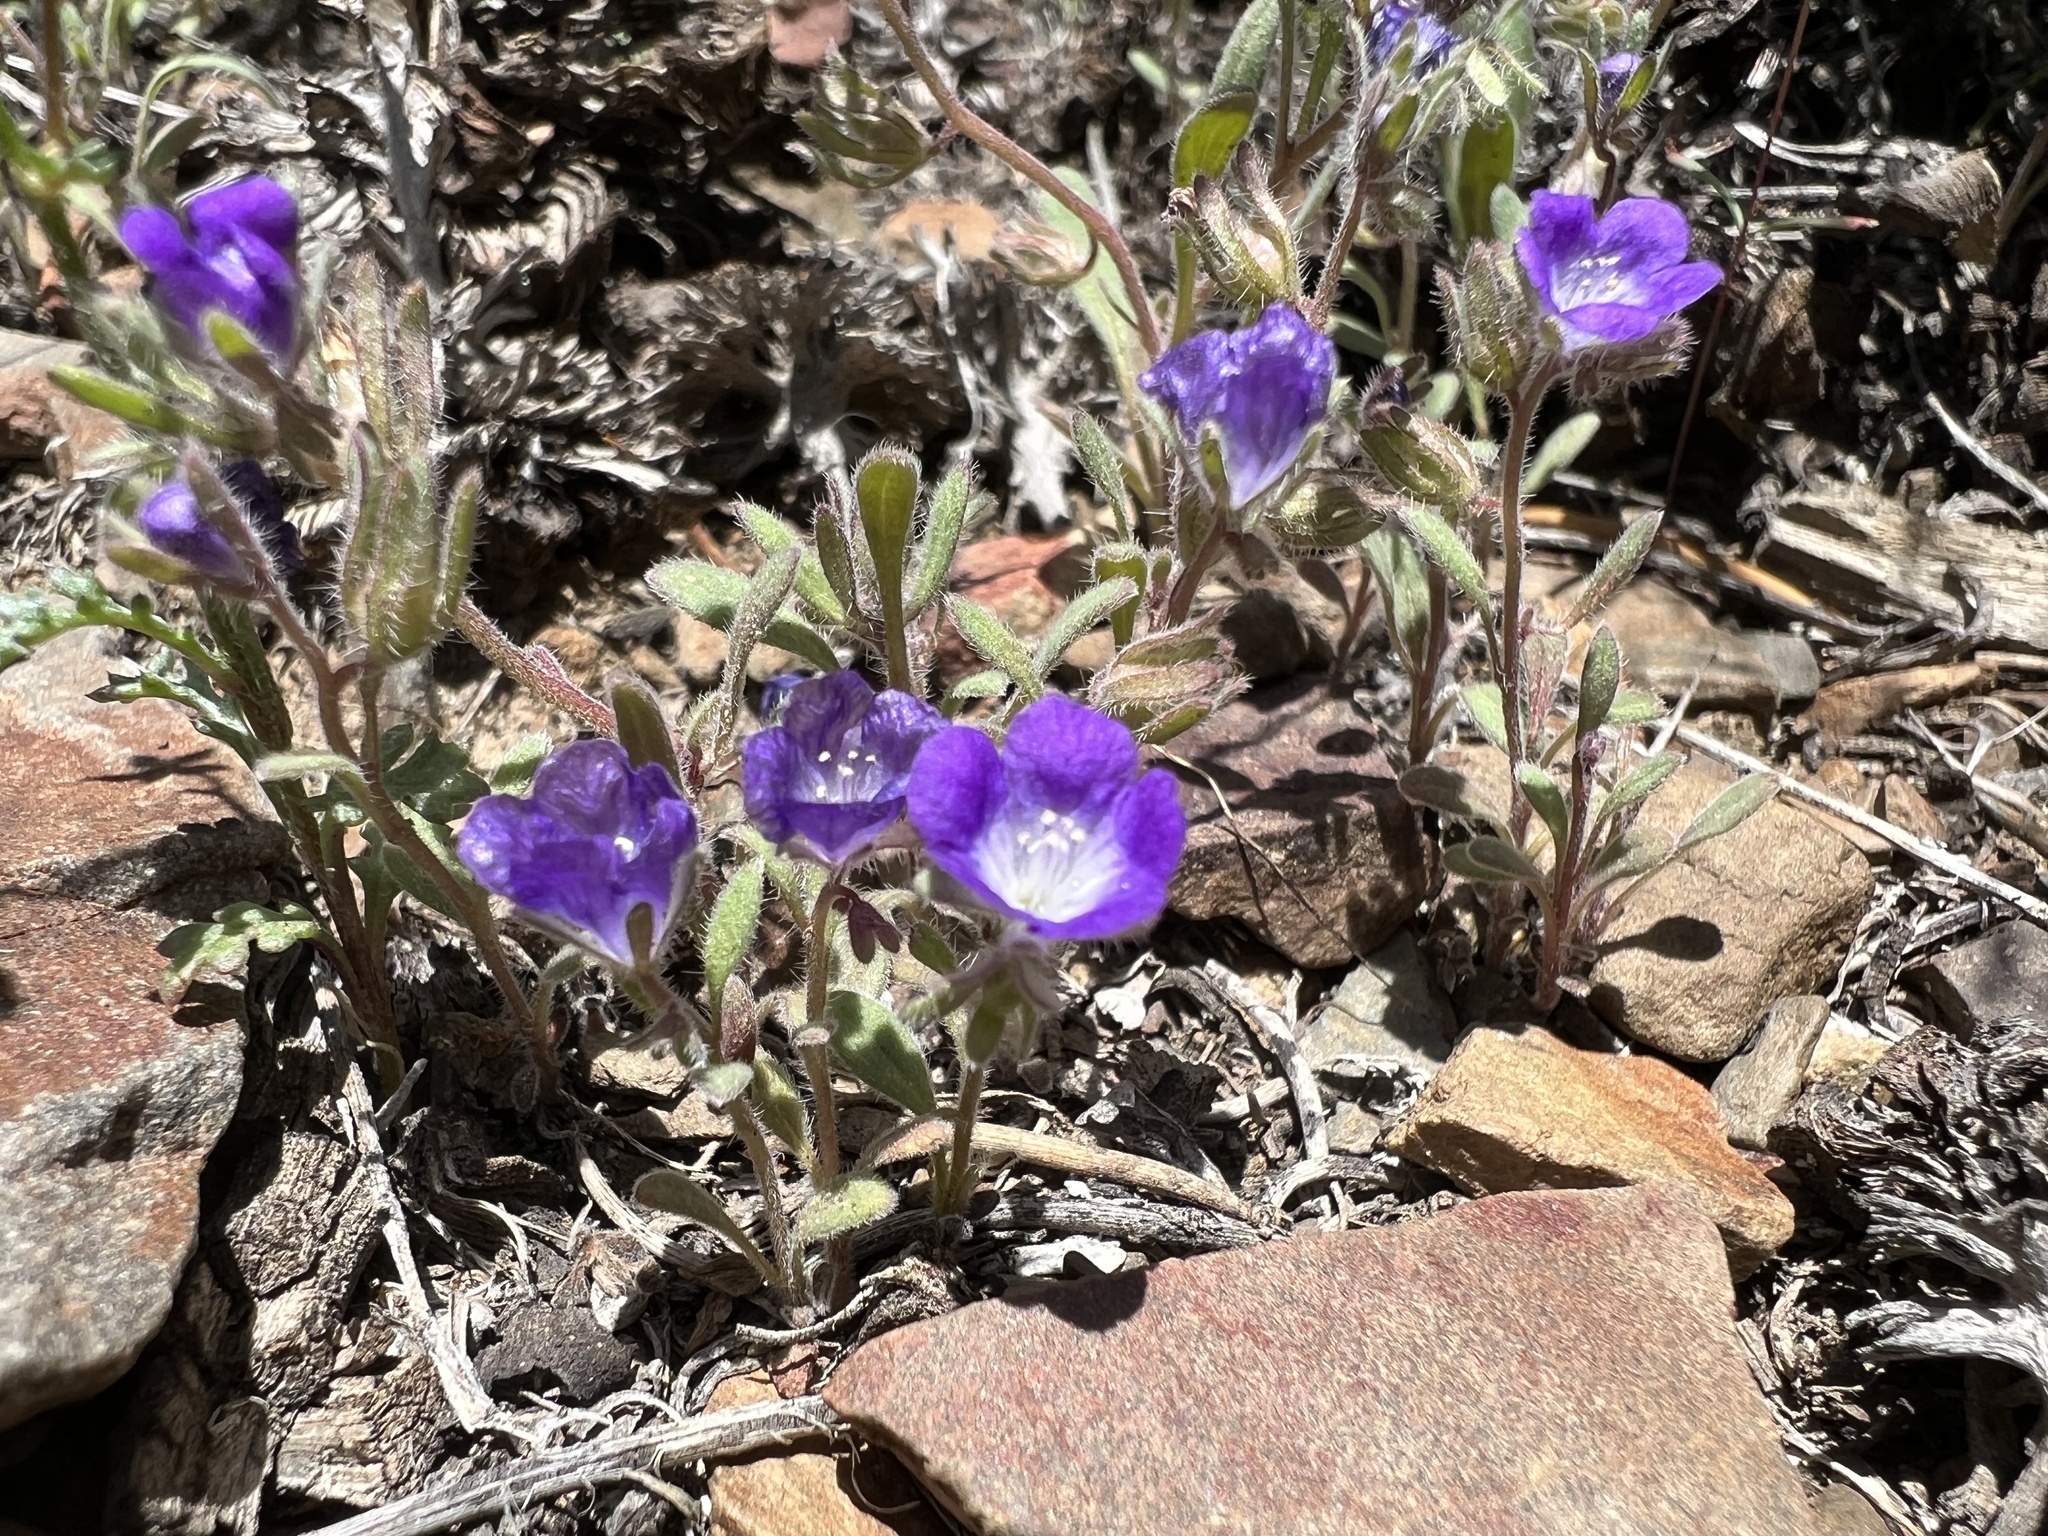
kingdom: Plantae
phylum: Tracheophyta
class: Magnoliopsida
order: Boraginales
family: Hydrophyllaceae
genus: Phacelia
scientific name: Phacelia curvipes
